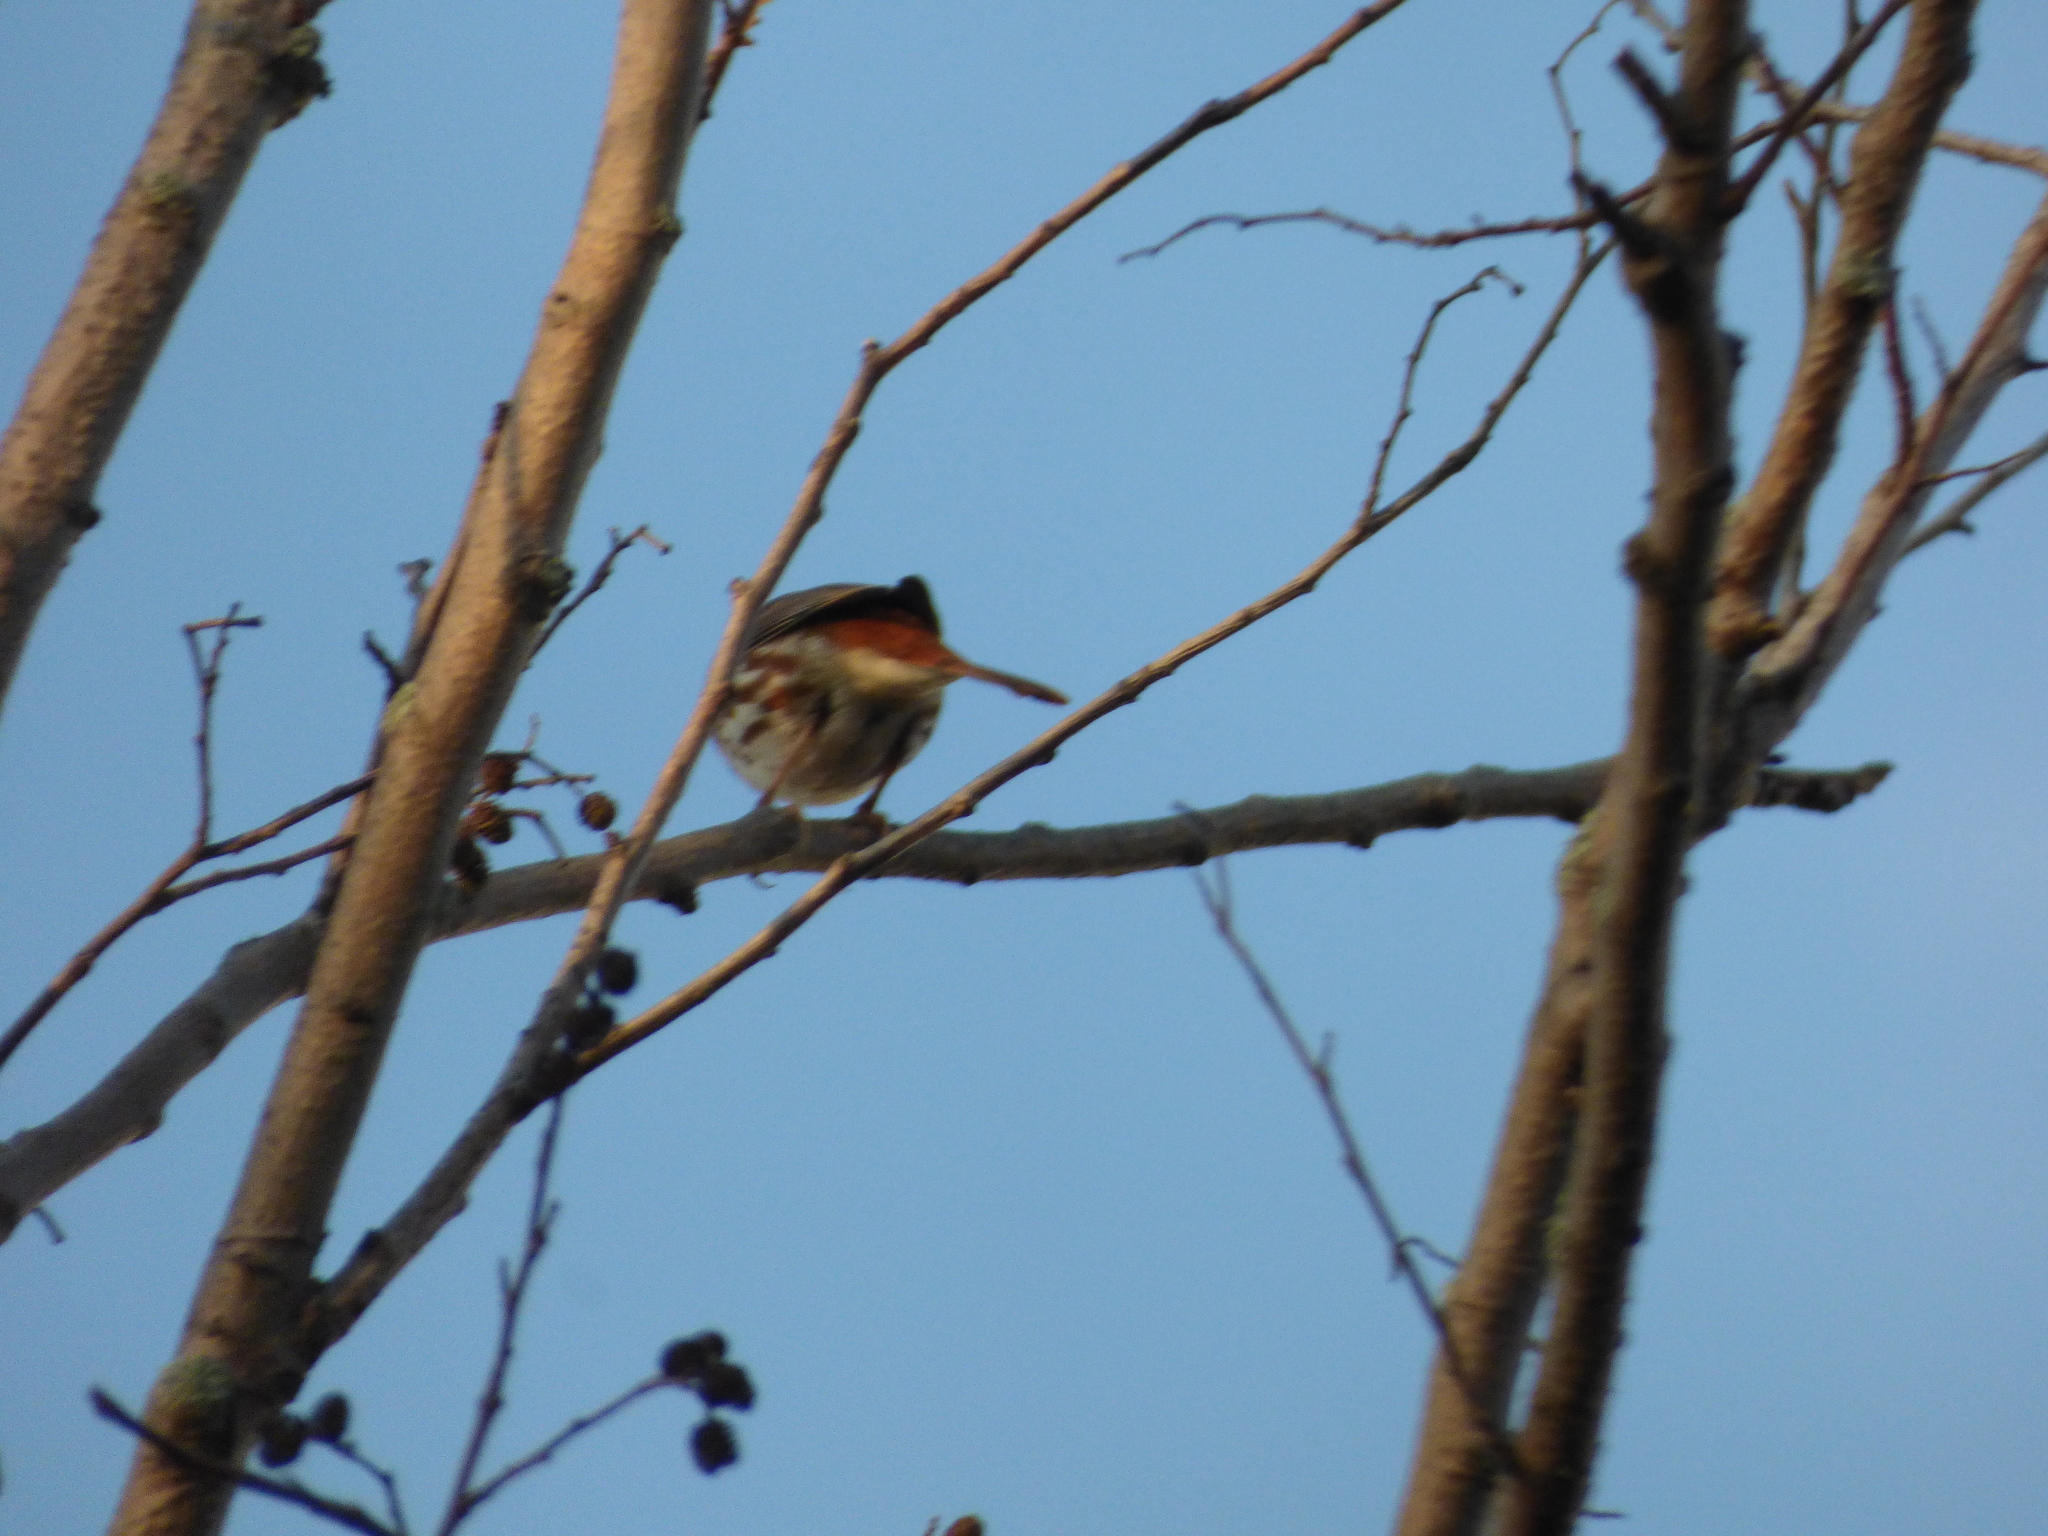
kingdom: Animalia
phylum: Chordata
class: Aves
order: Passeriformes
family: Passerellidae
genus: Passerella
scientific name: Passerella iliaca
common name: Fox sparrow
